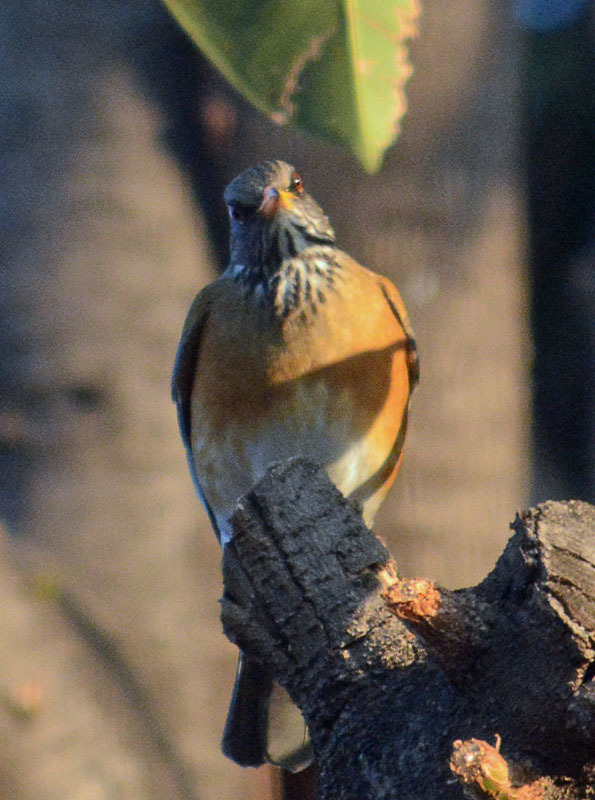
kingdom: Animalia
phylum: Chordata
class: Aves
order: Passeriformes
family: Turdidae
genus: Turdus
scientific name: Turdus rufopalliatus
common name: Rufous-backed robin
